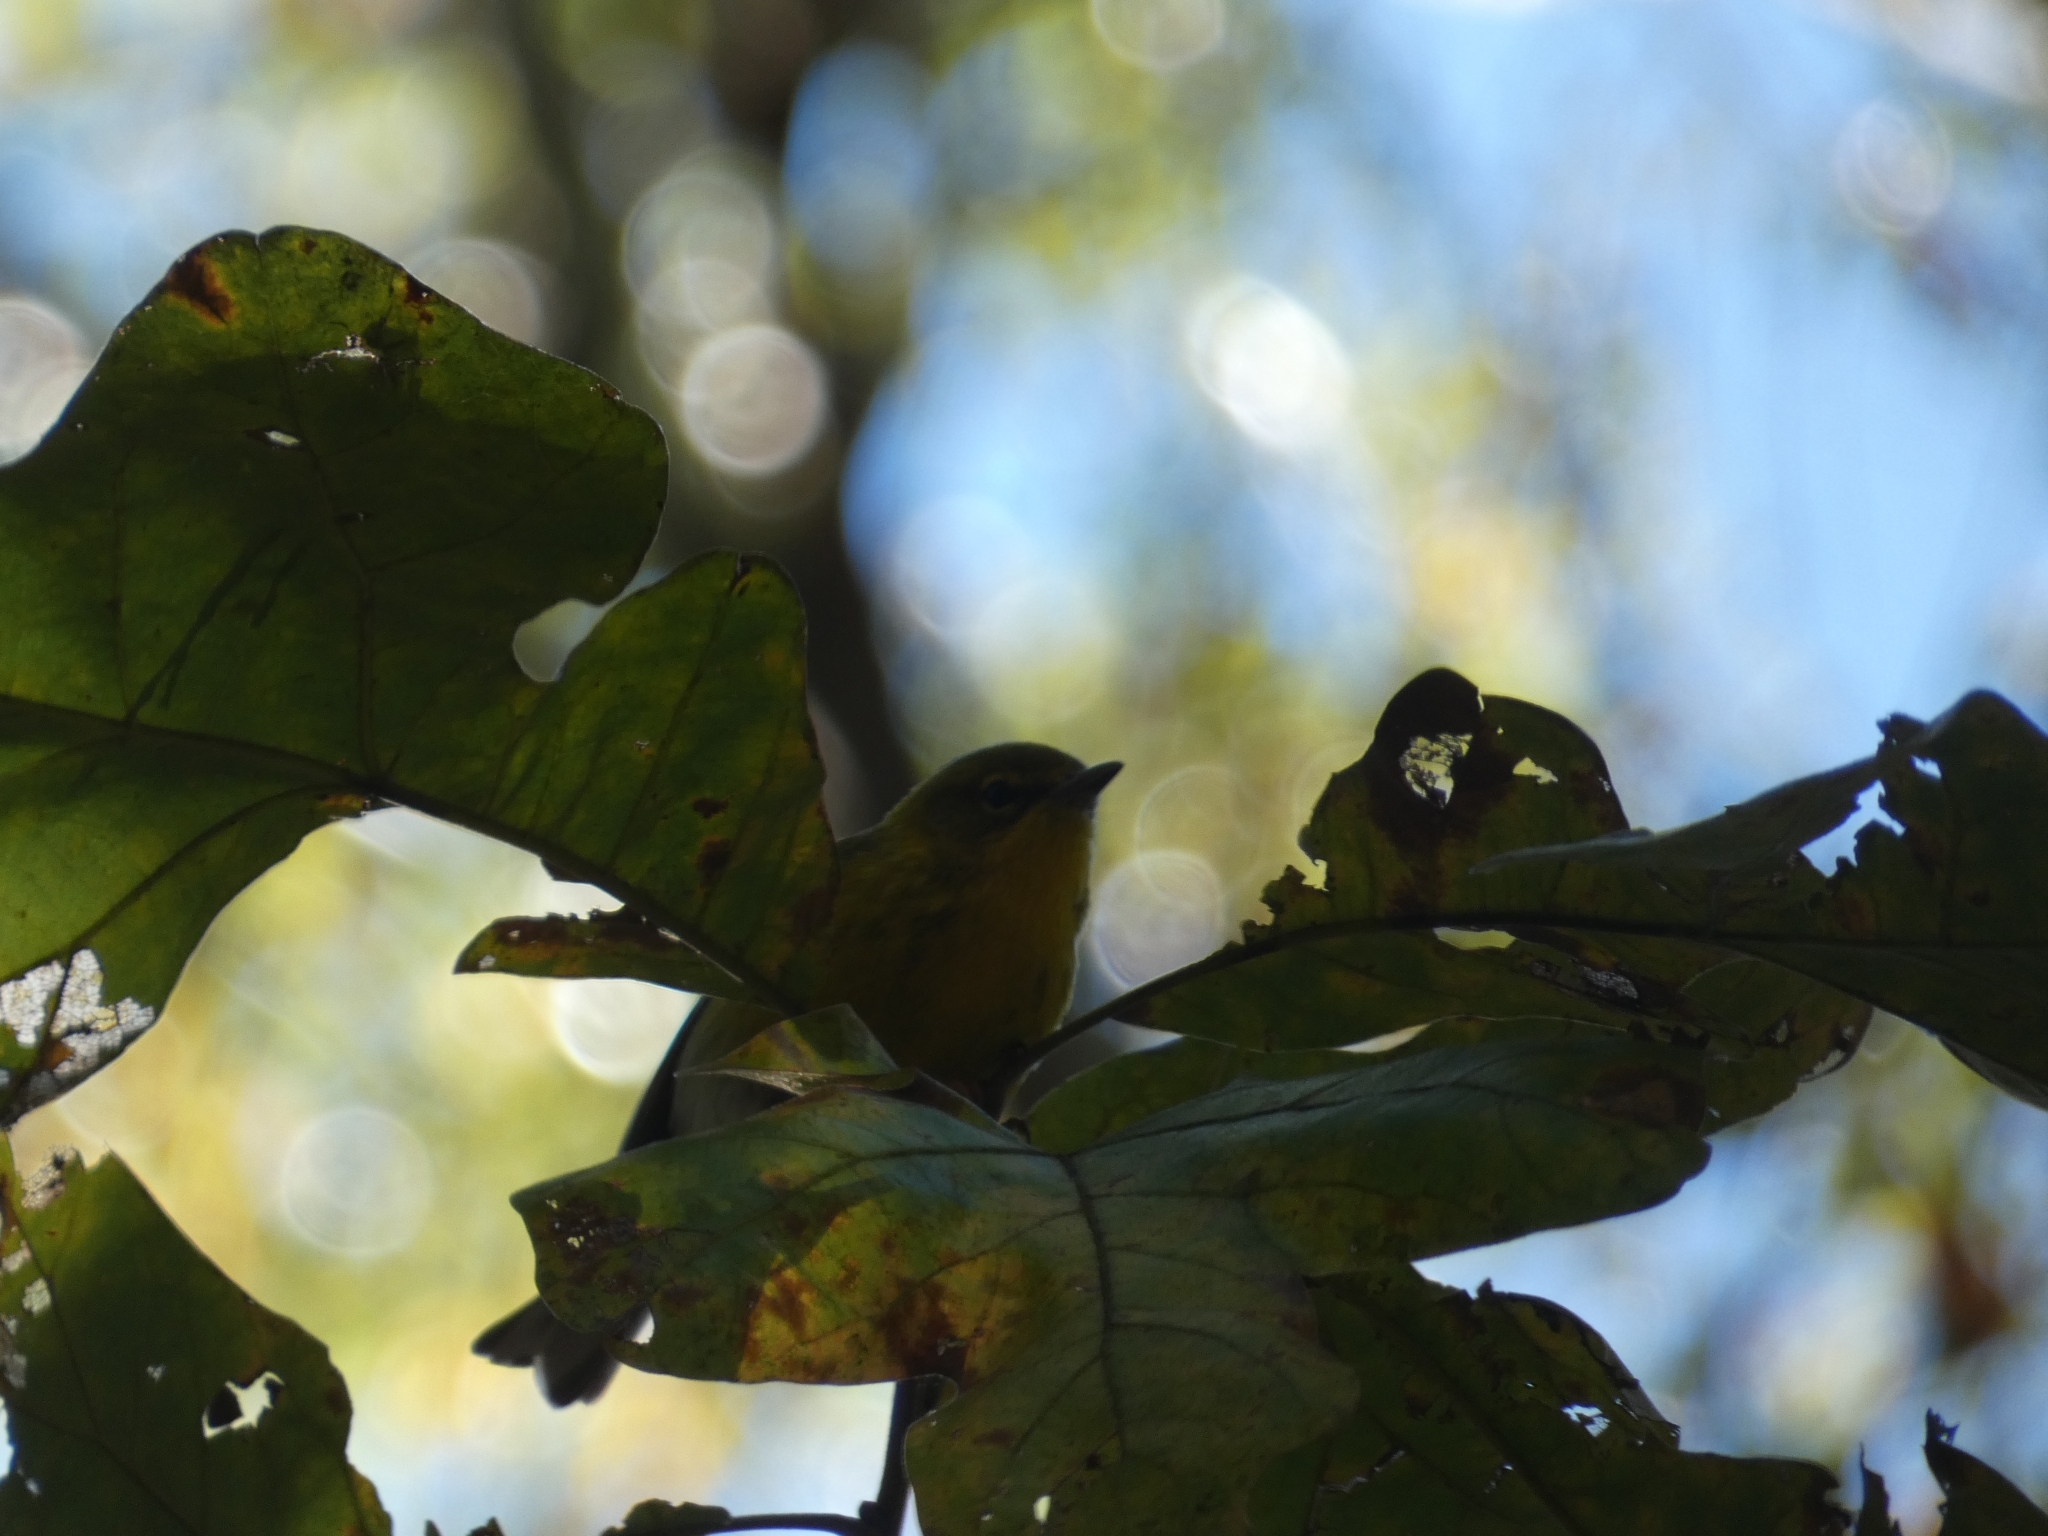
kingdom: Animalia
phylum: Chordata
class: Aves
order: Passeriformes
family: Parulidae
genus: Setophaga
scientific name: Setophaga magnolia
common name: Magnolia warbler
